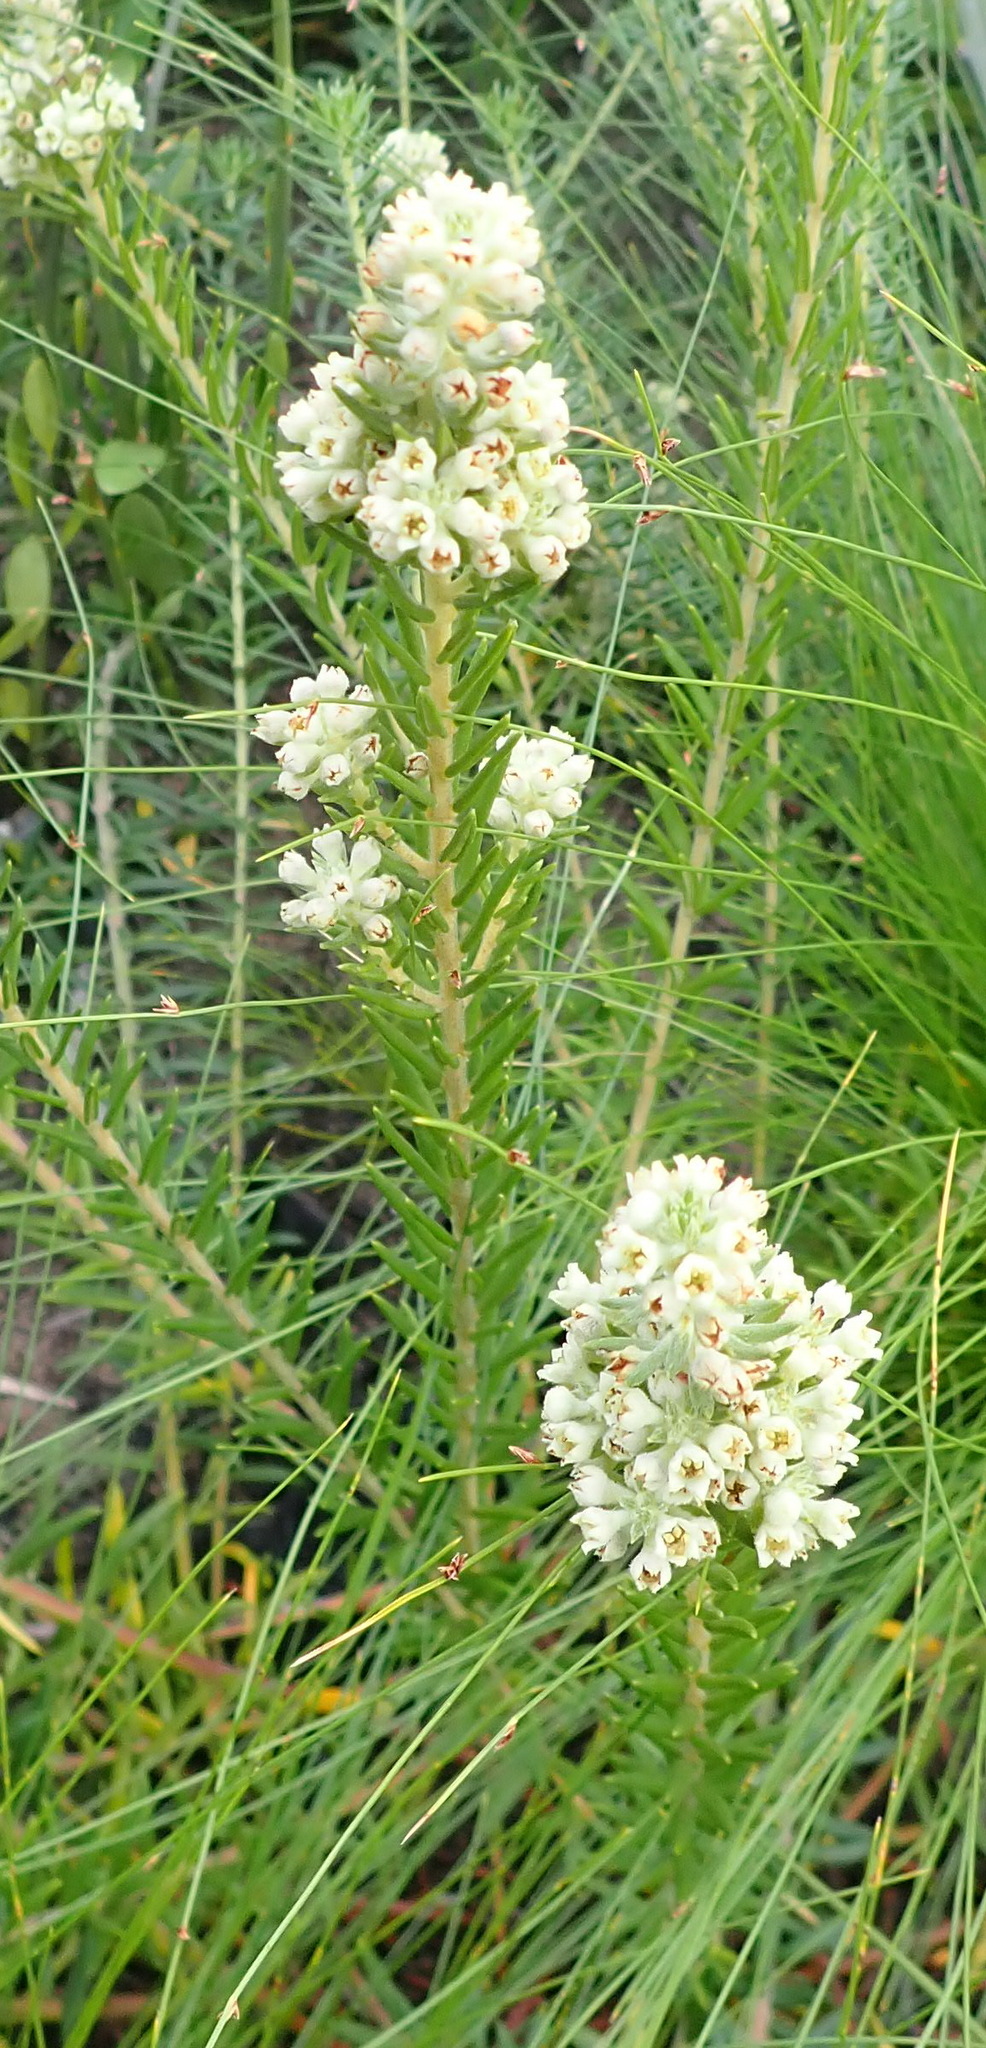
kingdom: Plantae
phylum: Tracheophyta
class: Magnoliopsida
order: Rosales
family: Rhamnaceae
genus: Phylica
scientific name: Phylica axillaris
